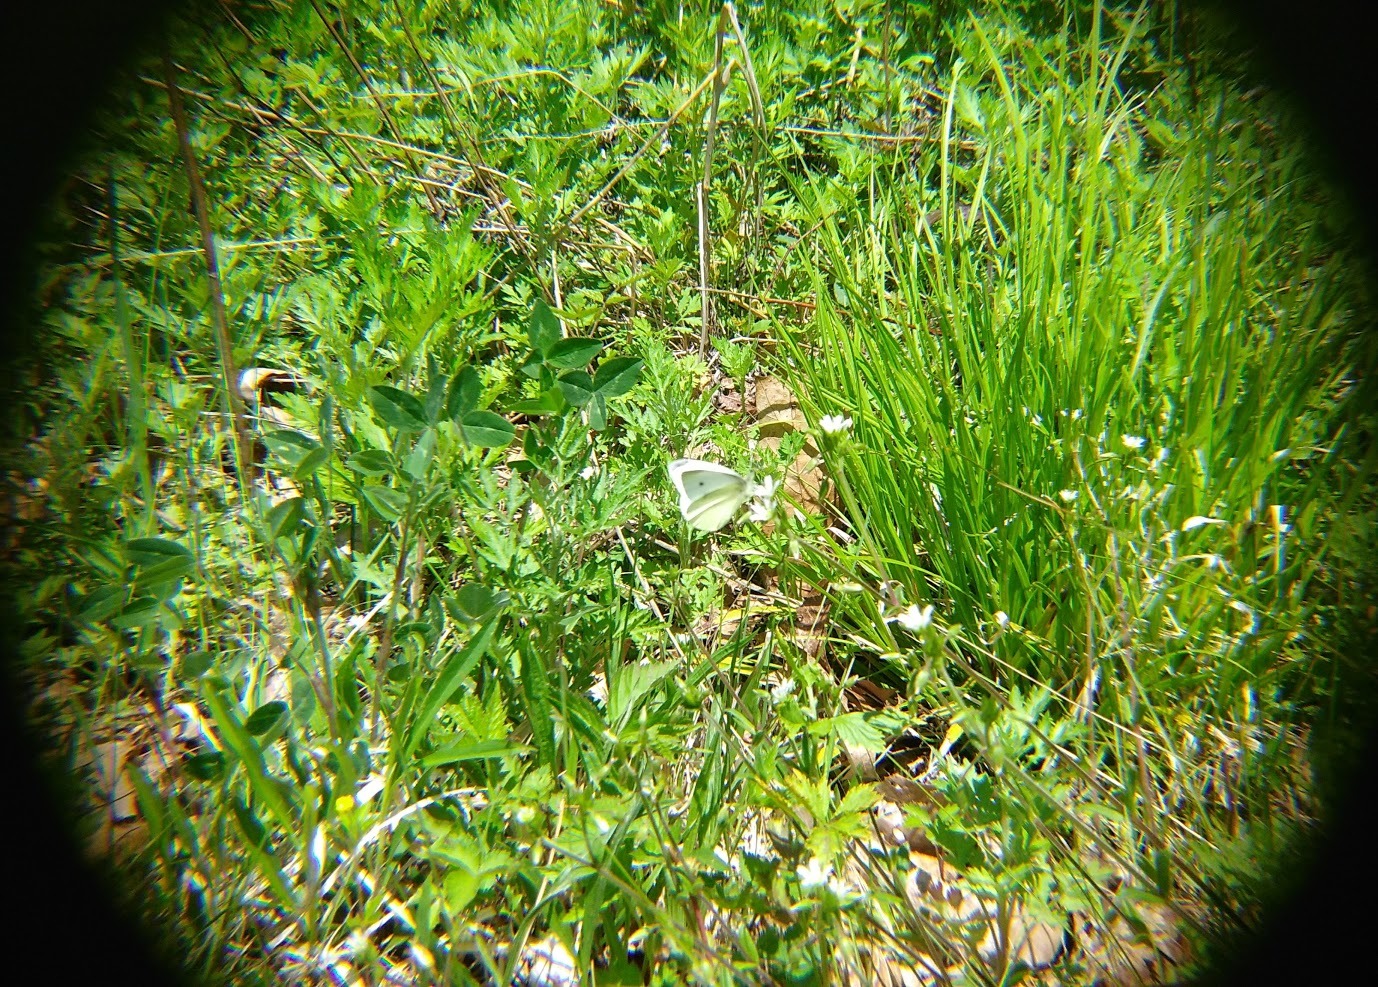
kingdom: Animalia
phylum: Arthropoda
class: Insecta
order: Lepidoptera
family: Pieridae
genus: Pieris
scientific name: Pieris rapae
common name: Small white
